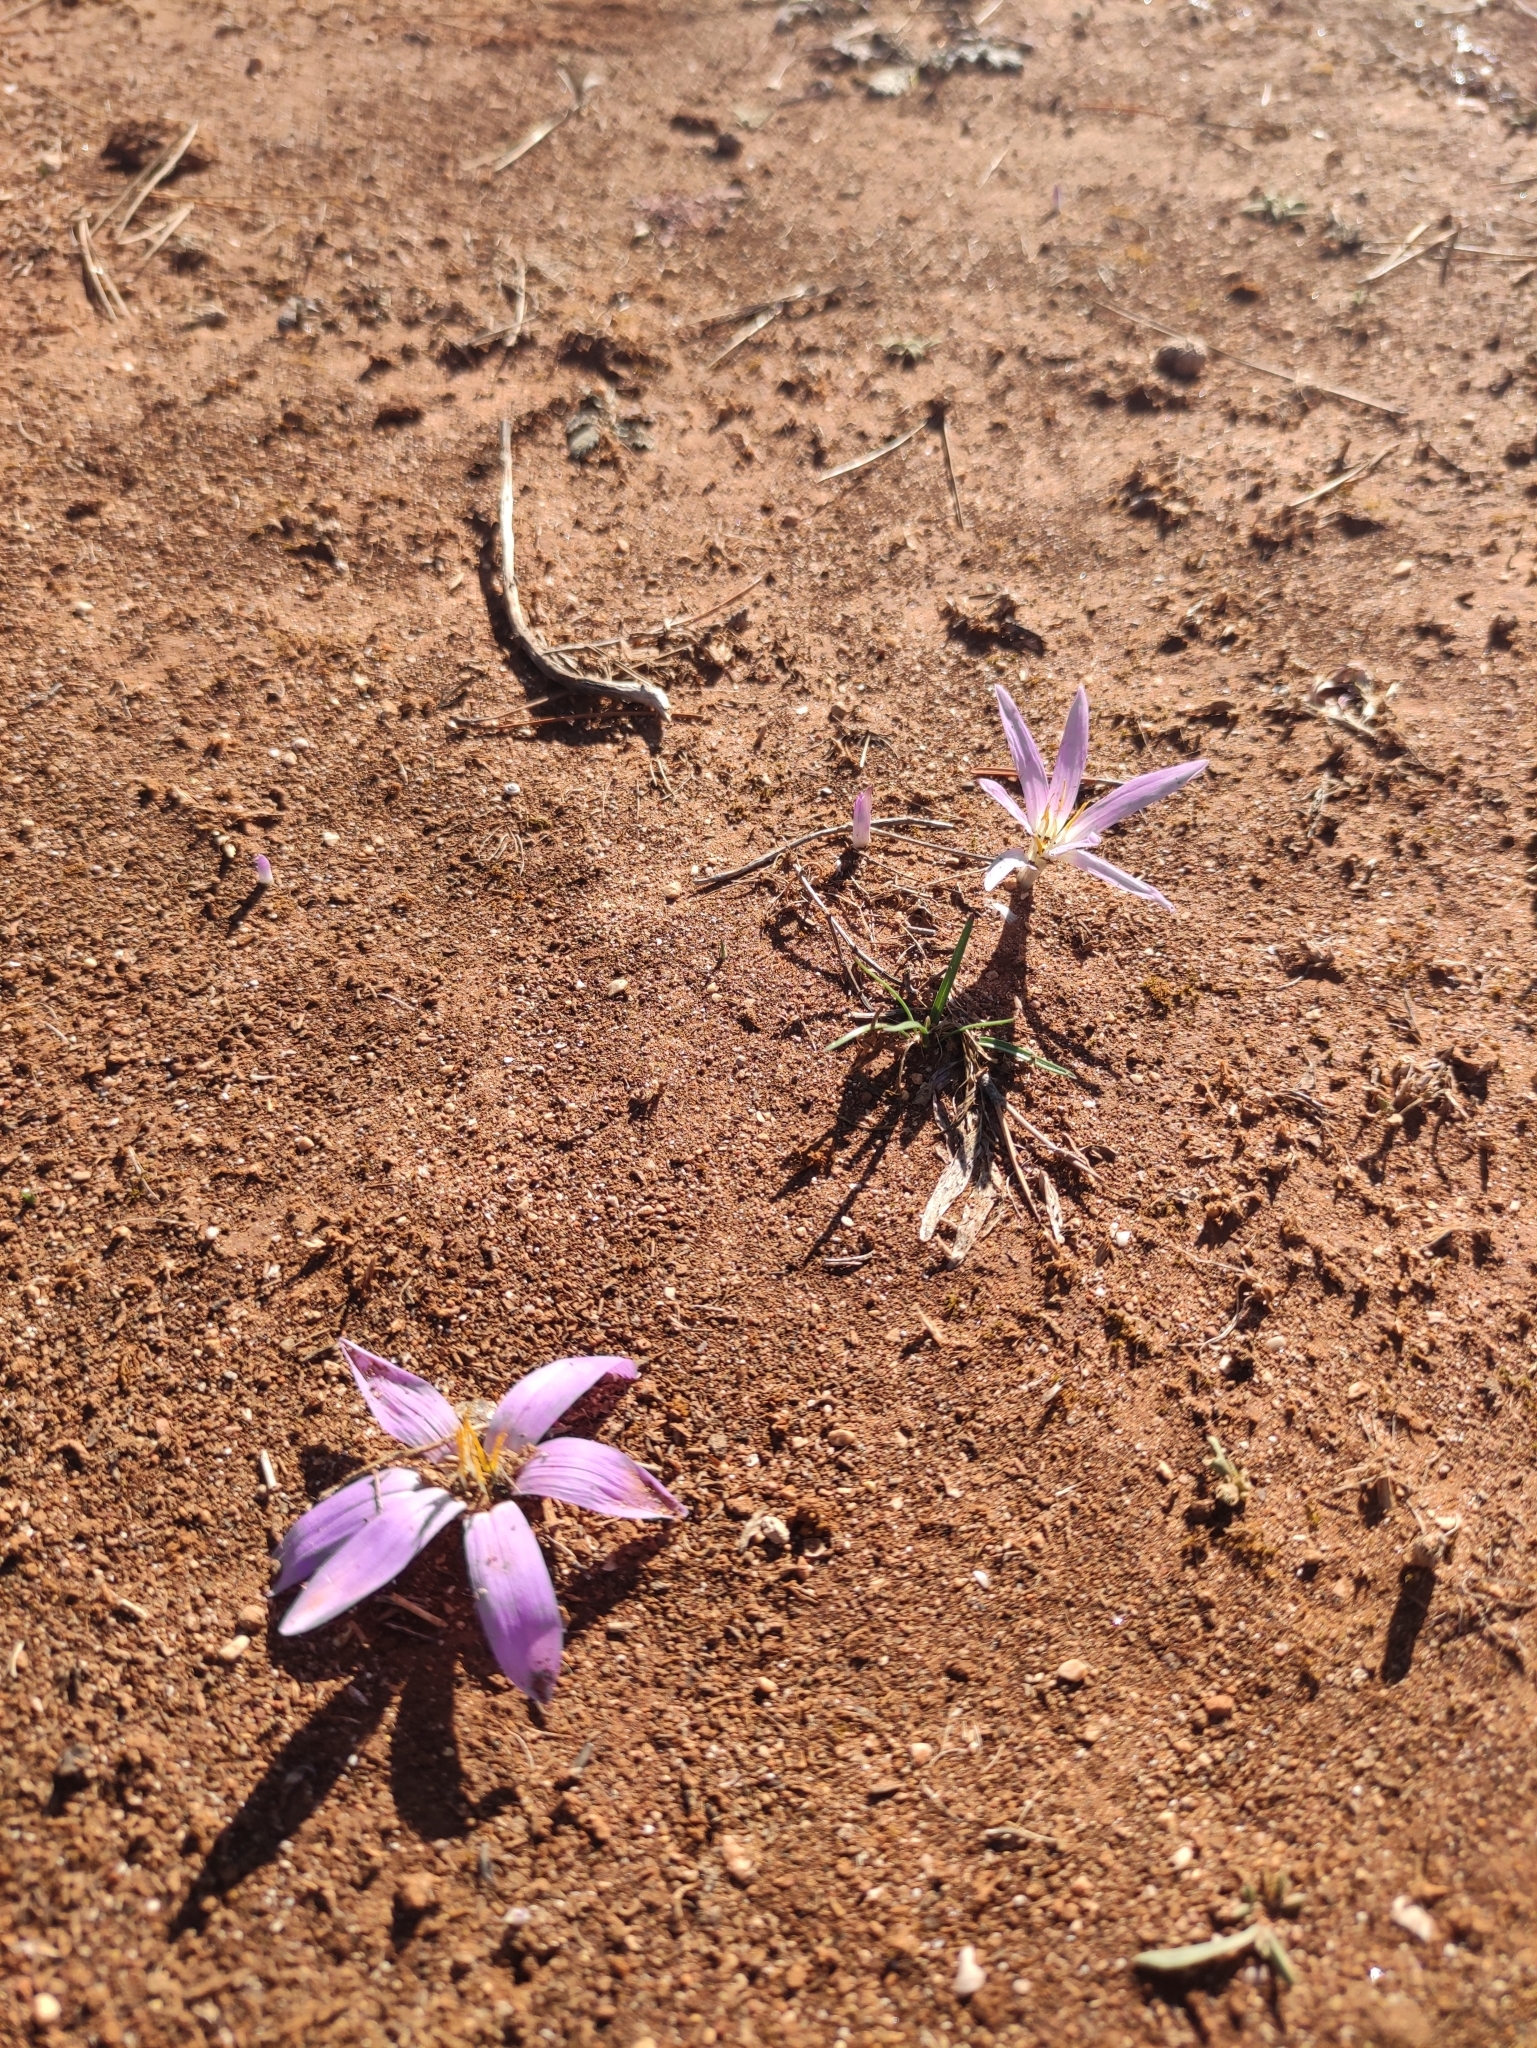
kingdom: Plantae
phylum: Tracheophyta
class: Liliopsida
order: Liliales
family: Colchicaceae
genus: Colchicum
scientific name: Colchicum filifolium
